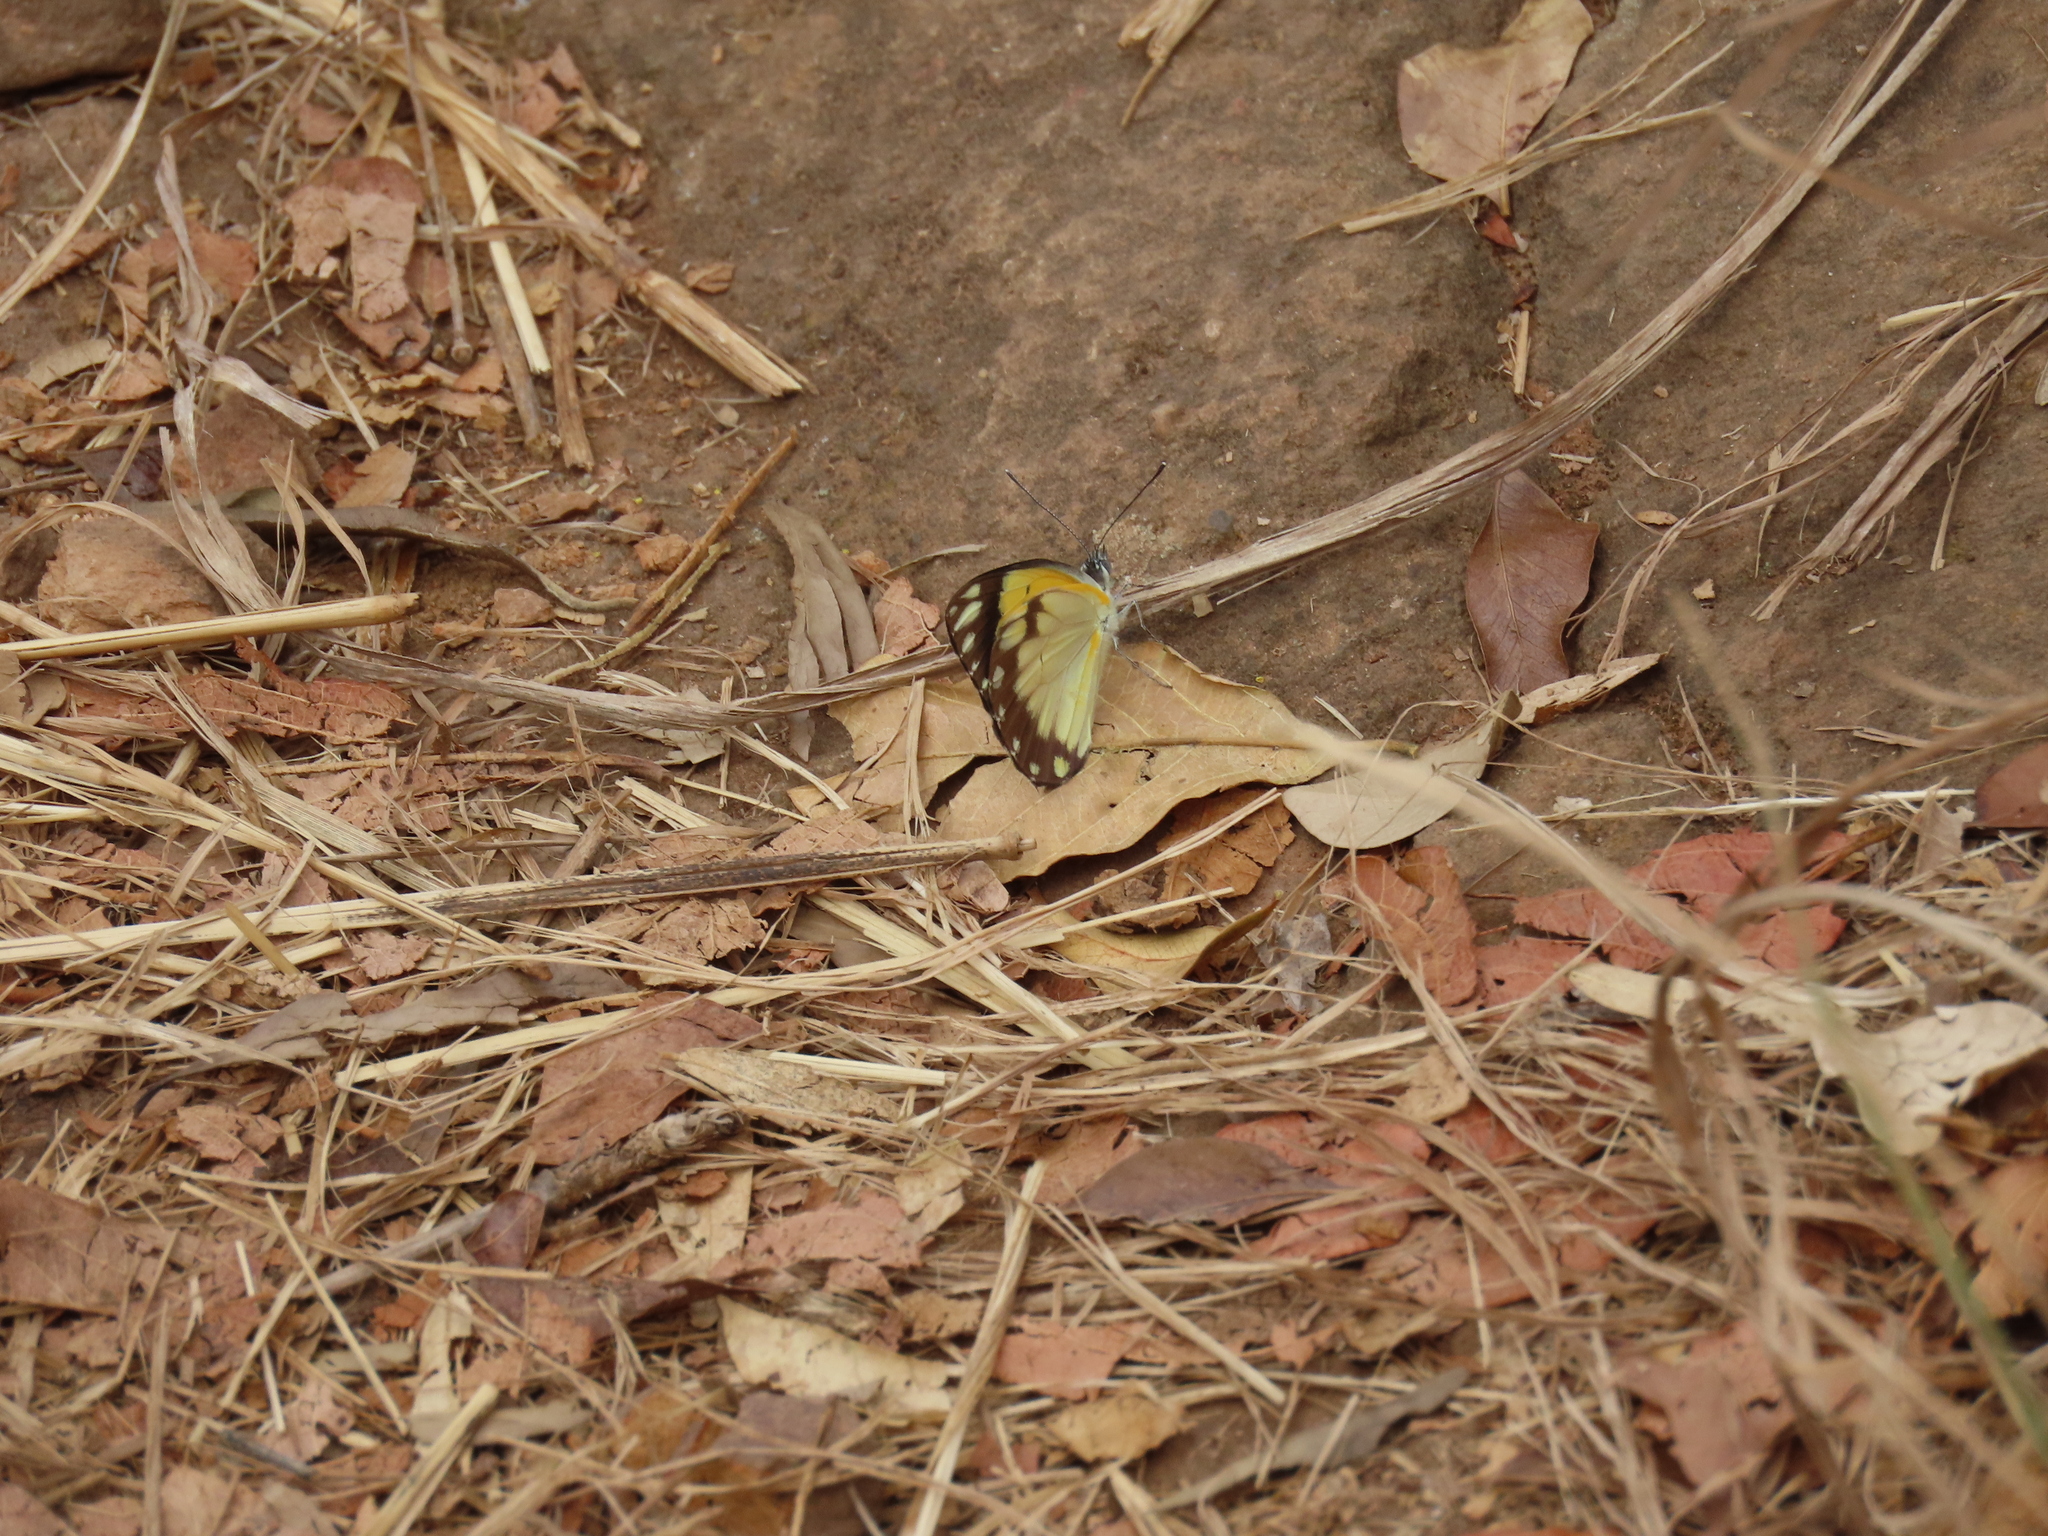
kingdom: Animalia
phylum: Arthropoda
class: Insecta
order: Lepidoptera
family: Pieridae
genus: Belenois
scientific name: Belenois creona
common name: African caper white
